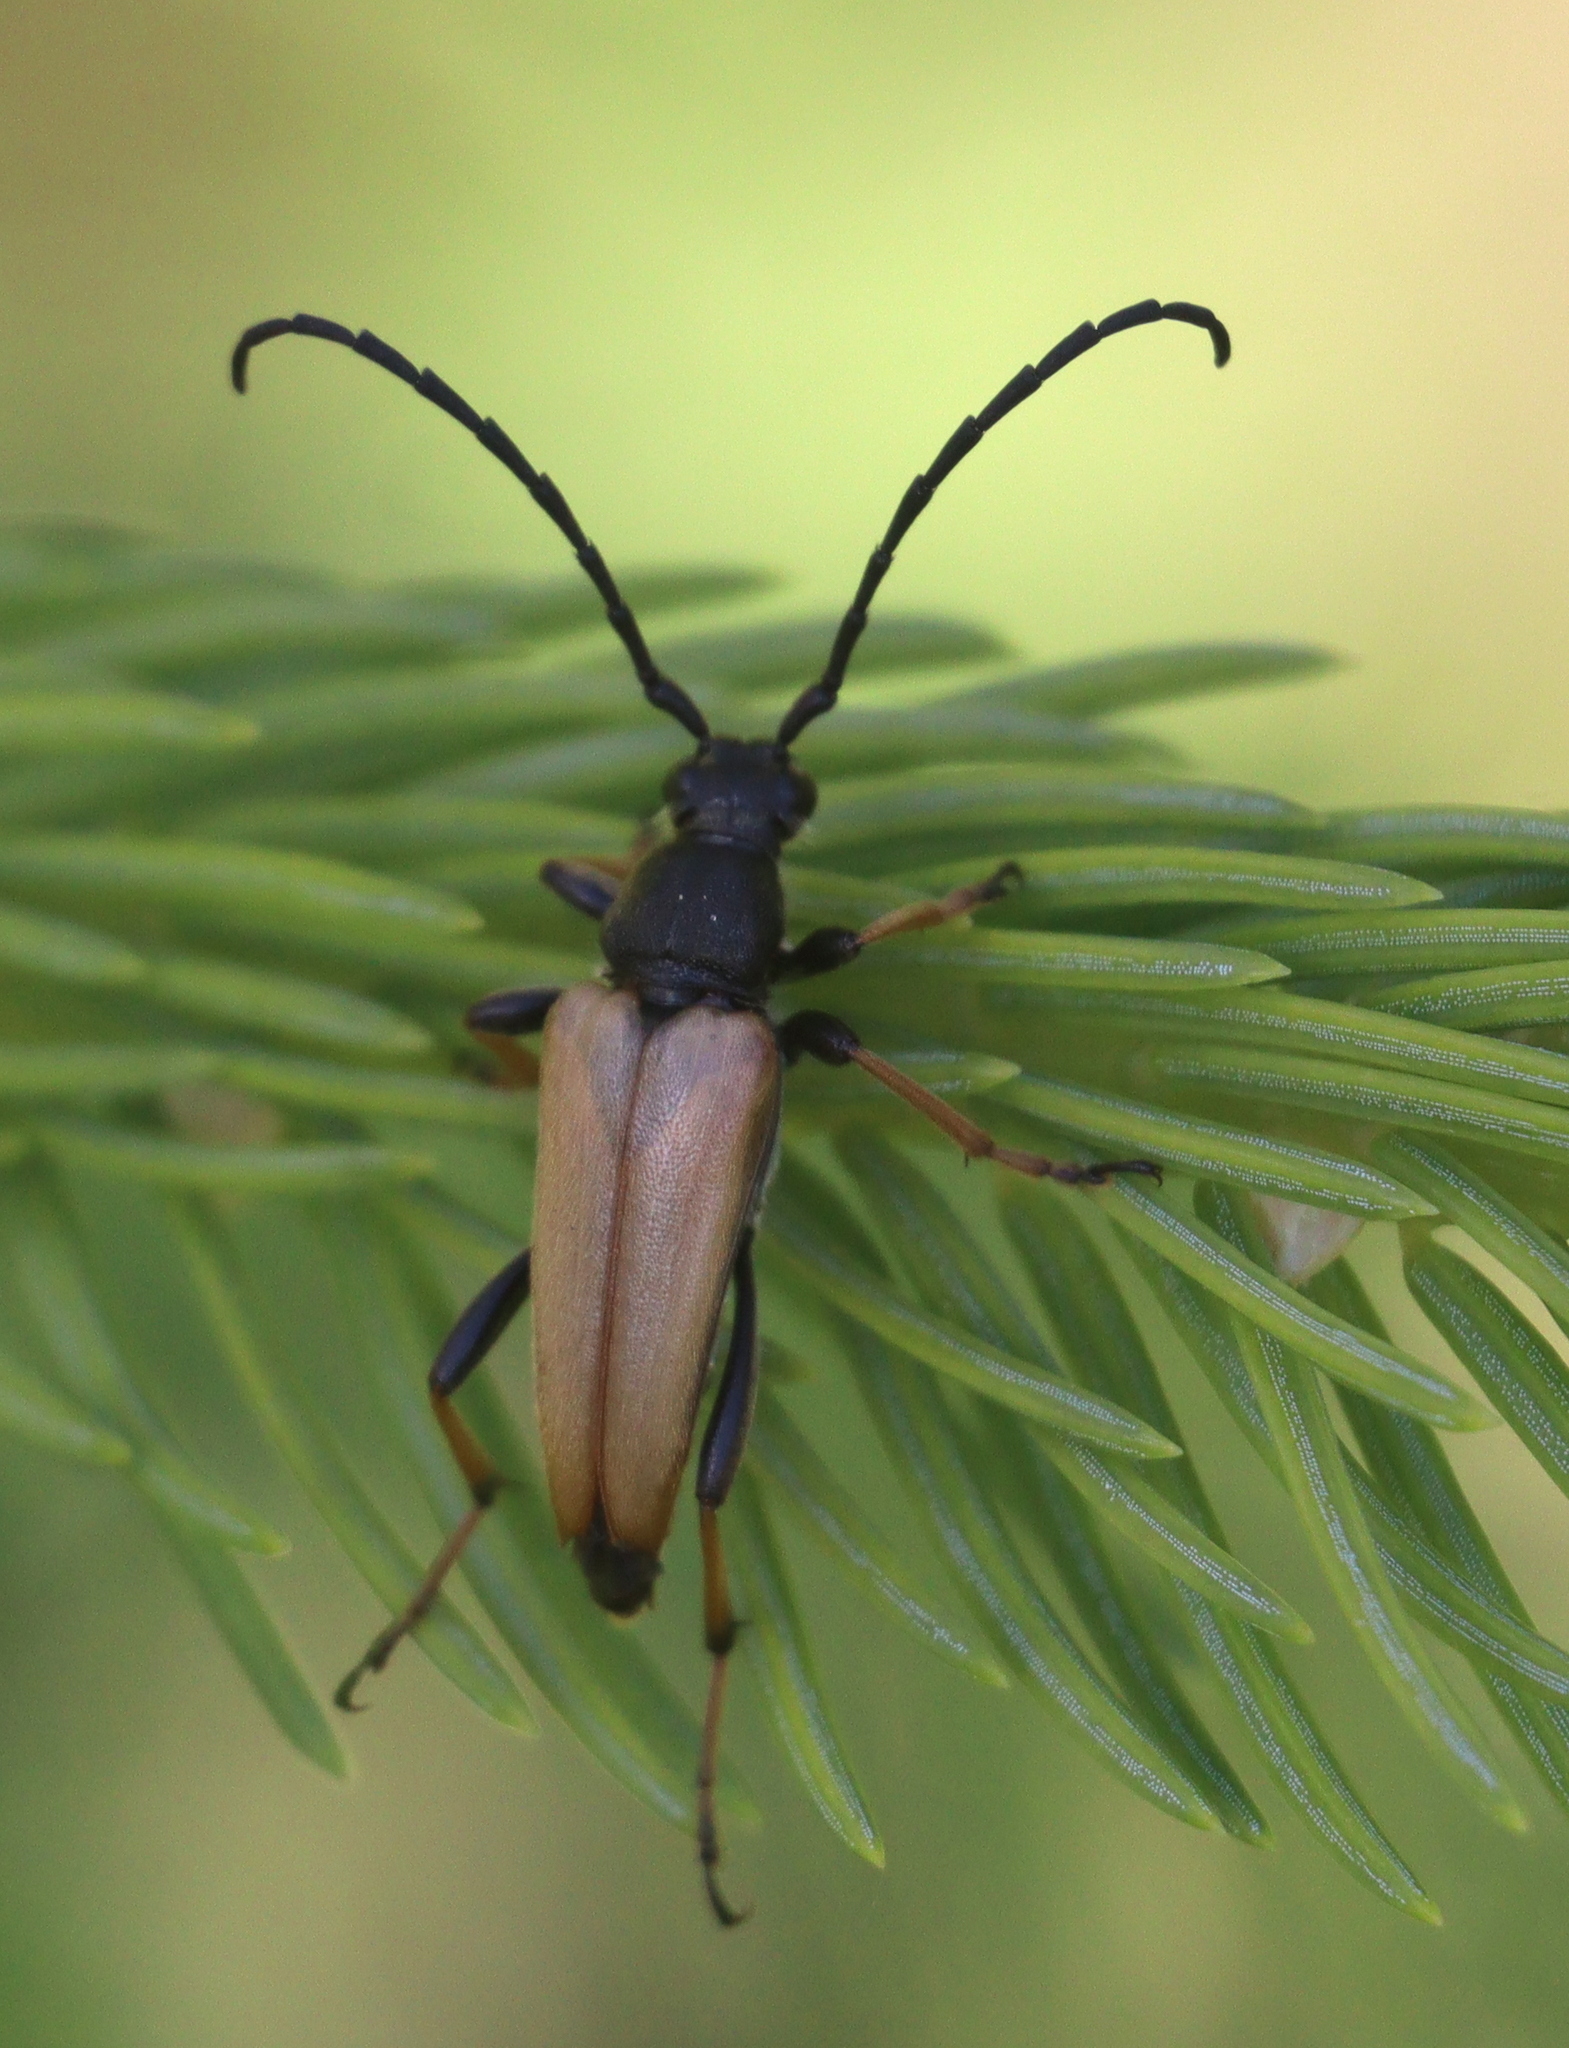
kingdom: Animalia
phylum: Arthropoda
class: Insecta
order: Coleoptera
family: Cerambycidae
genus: Stictoleptura
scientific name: Stictoleptura rubra
